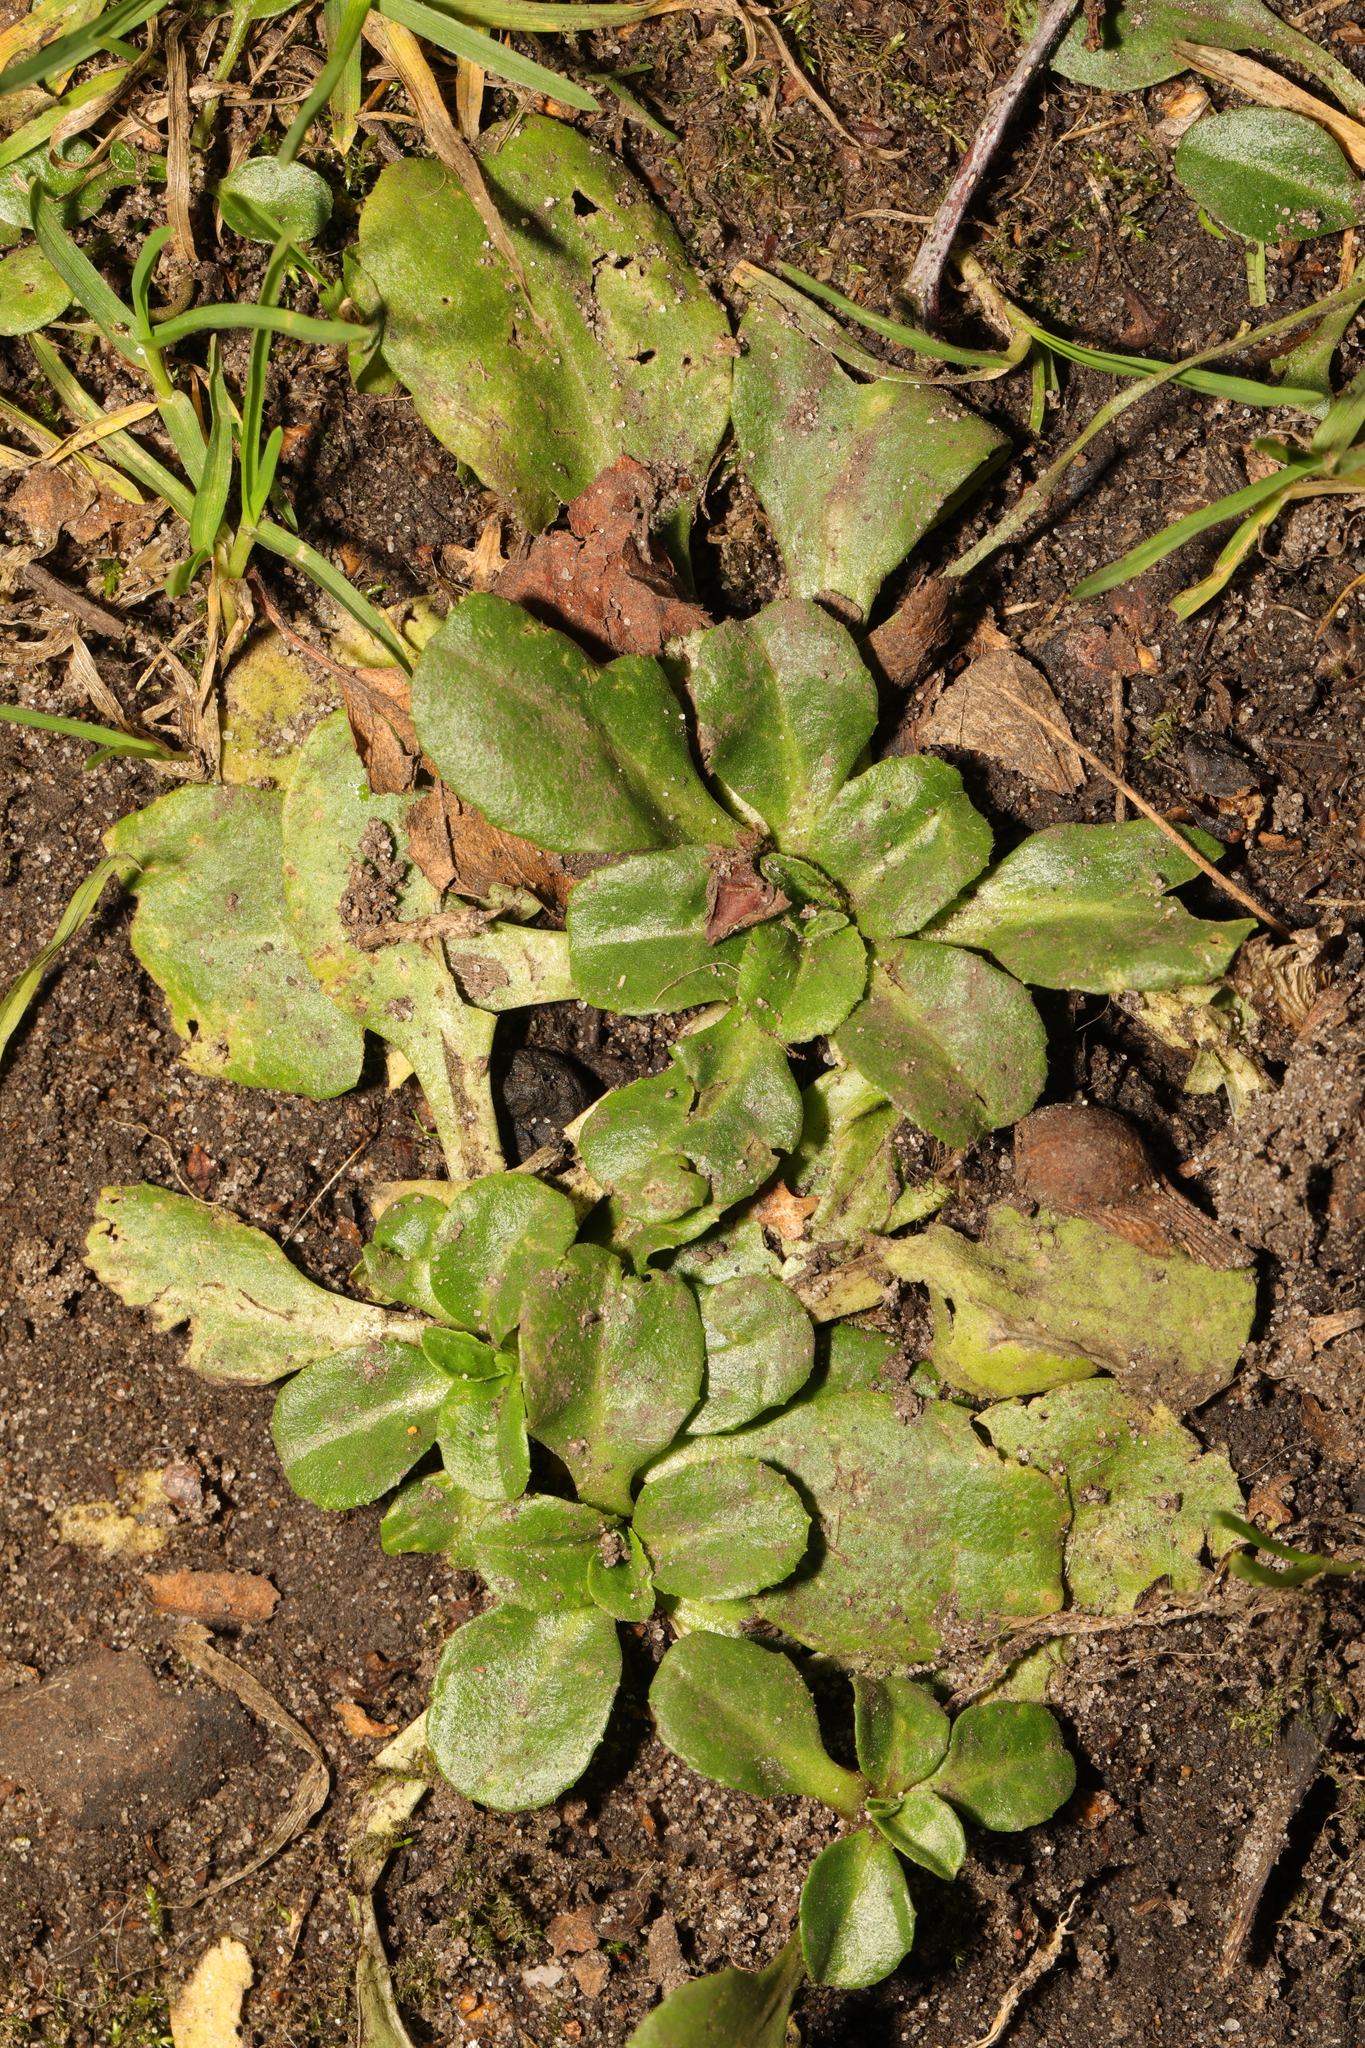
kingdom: Plantae
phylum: Tracheophyta
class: Magnoliopsida
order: Asterales
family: Asteraceae
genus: Bellis
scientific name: Bellis perennis
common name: Lawndaisy
